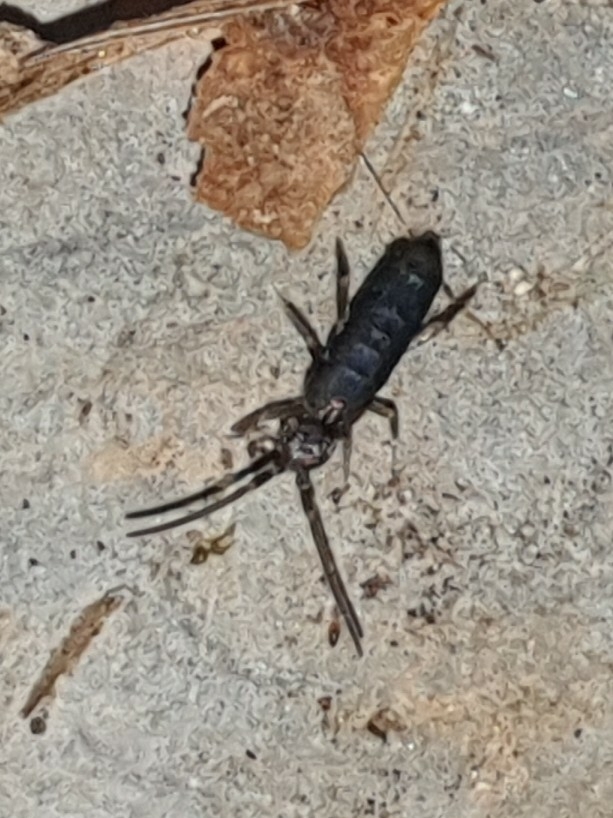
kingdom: Animalia
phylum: Arthropoda
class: Collembola
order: Entomobryomorpha
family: Tomoceridae
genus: Tomocerus
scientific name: Tomocerus vulgaris
